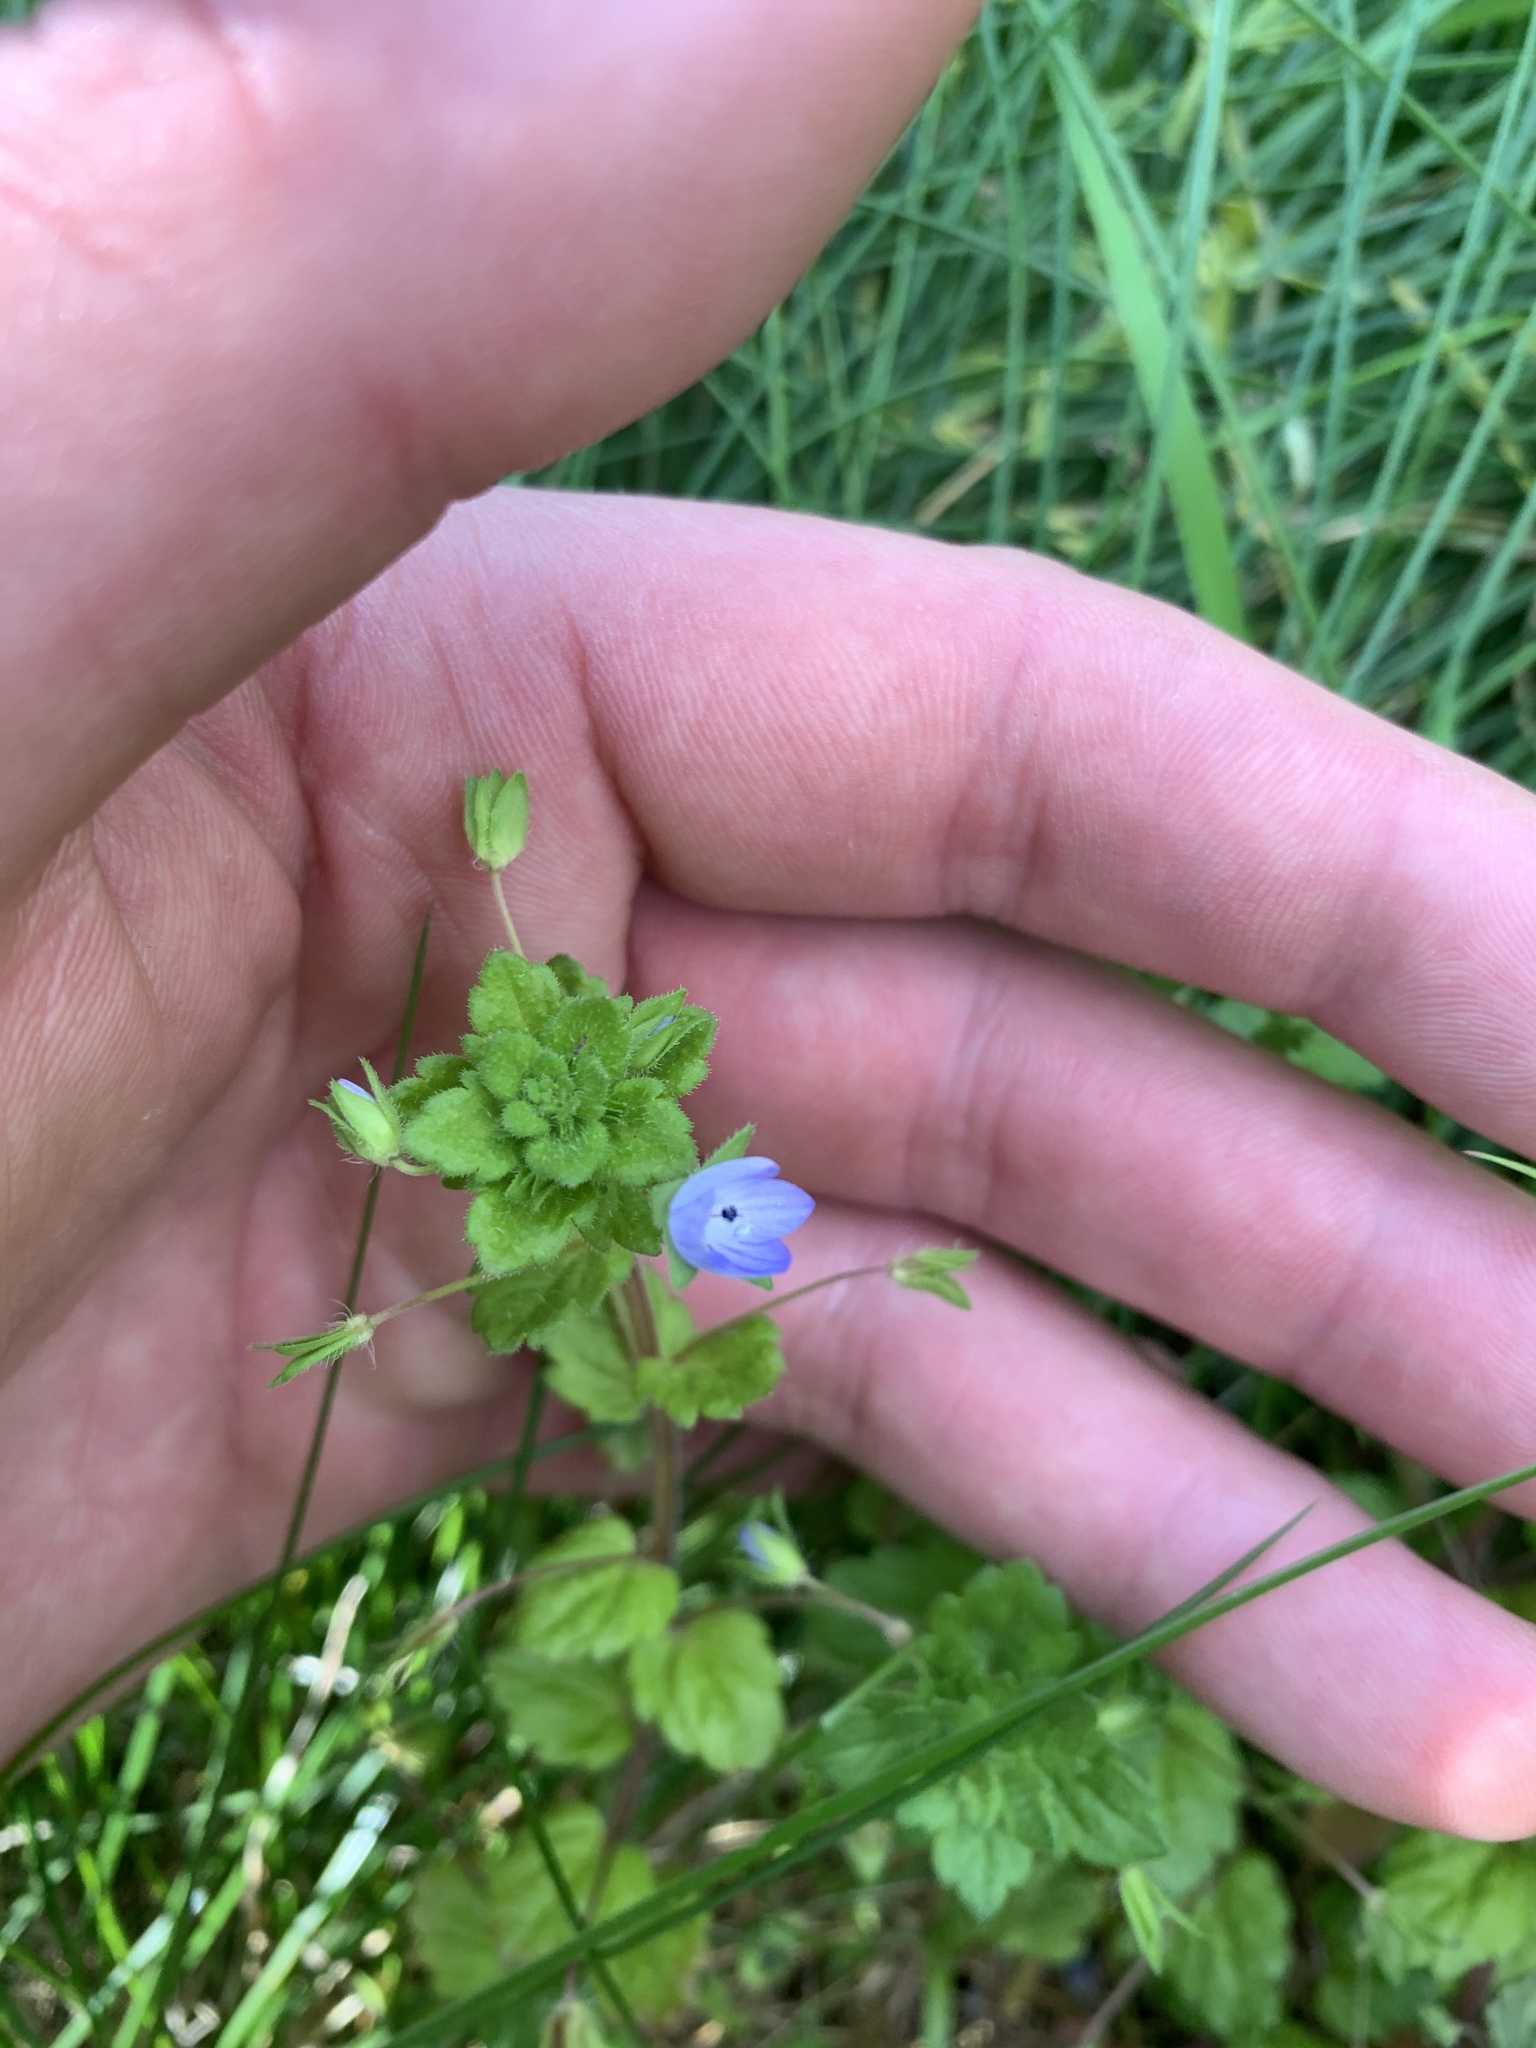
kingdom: Plantae
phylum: Tracheophyta
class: Magnoliopsida
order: Lamiales
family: Plantaginaceae
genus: Veronica
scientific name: Veronica persica
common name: Common field-speedwell
